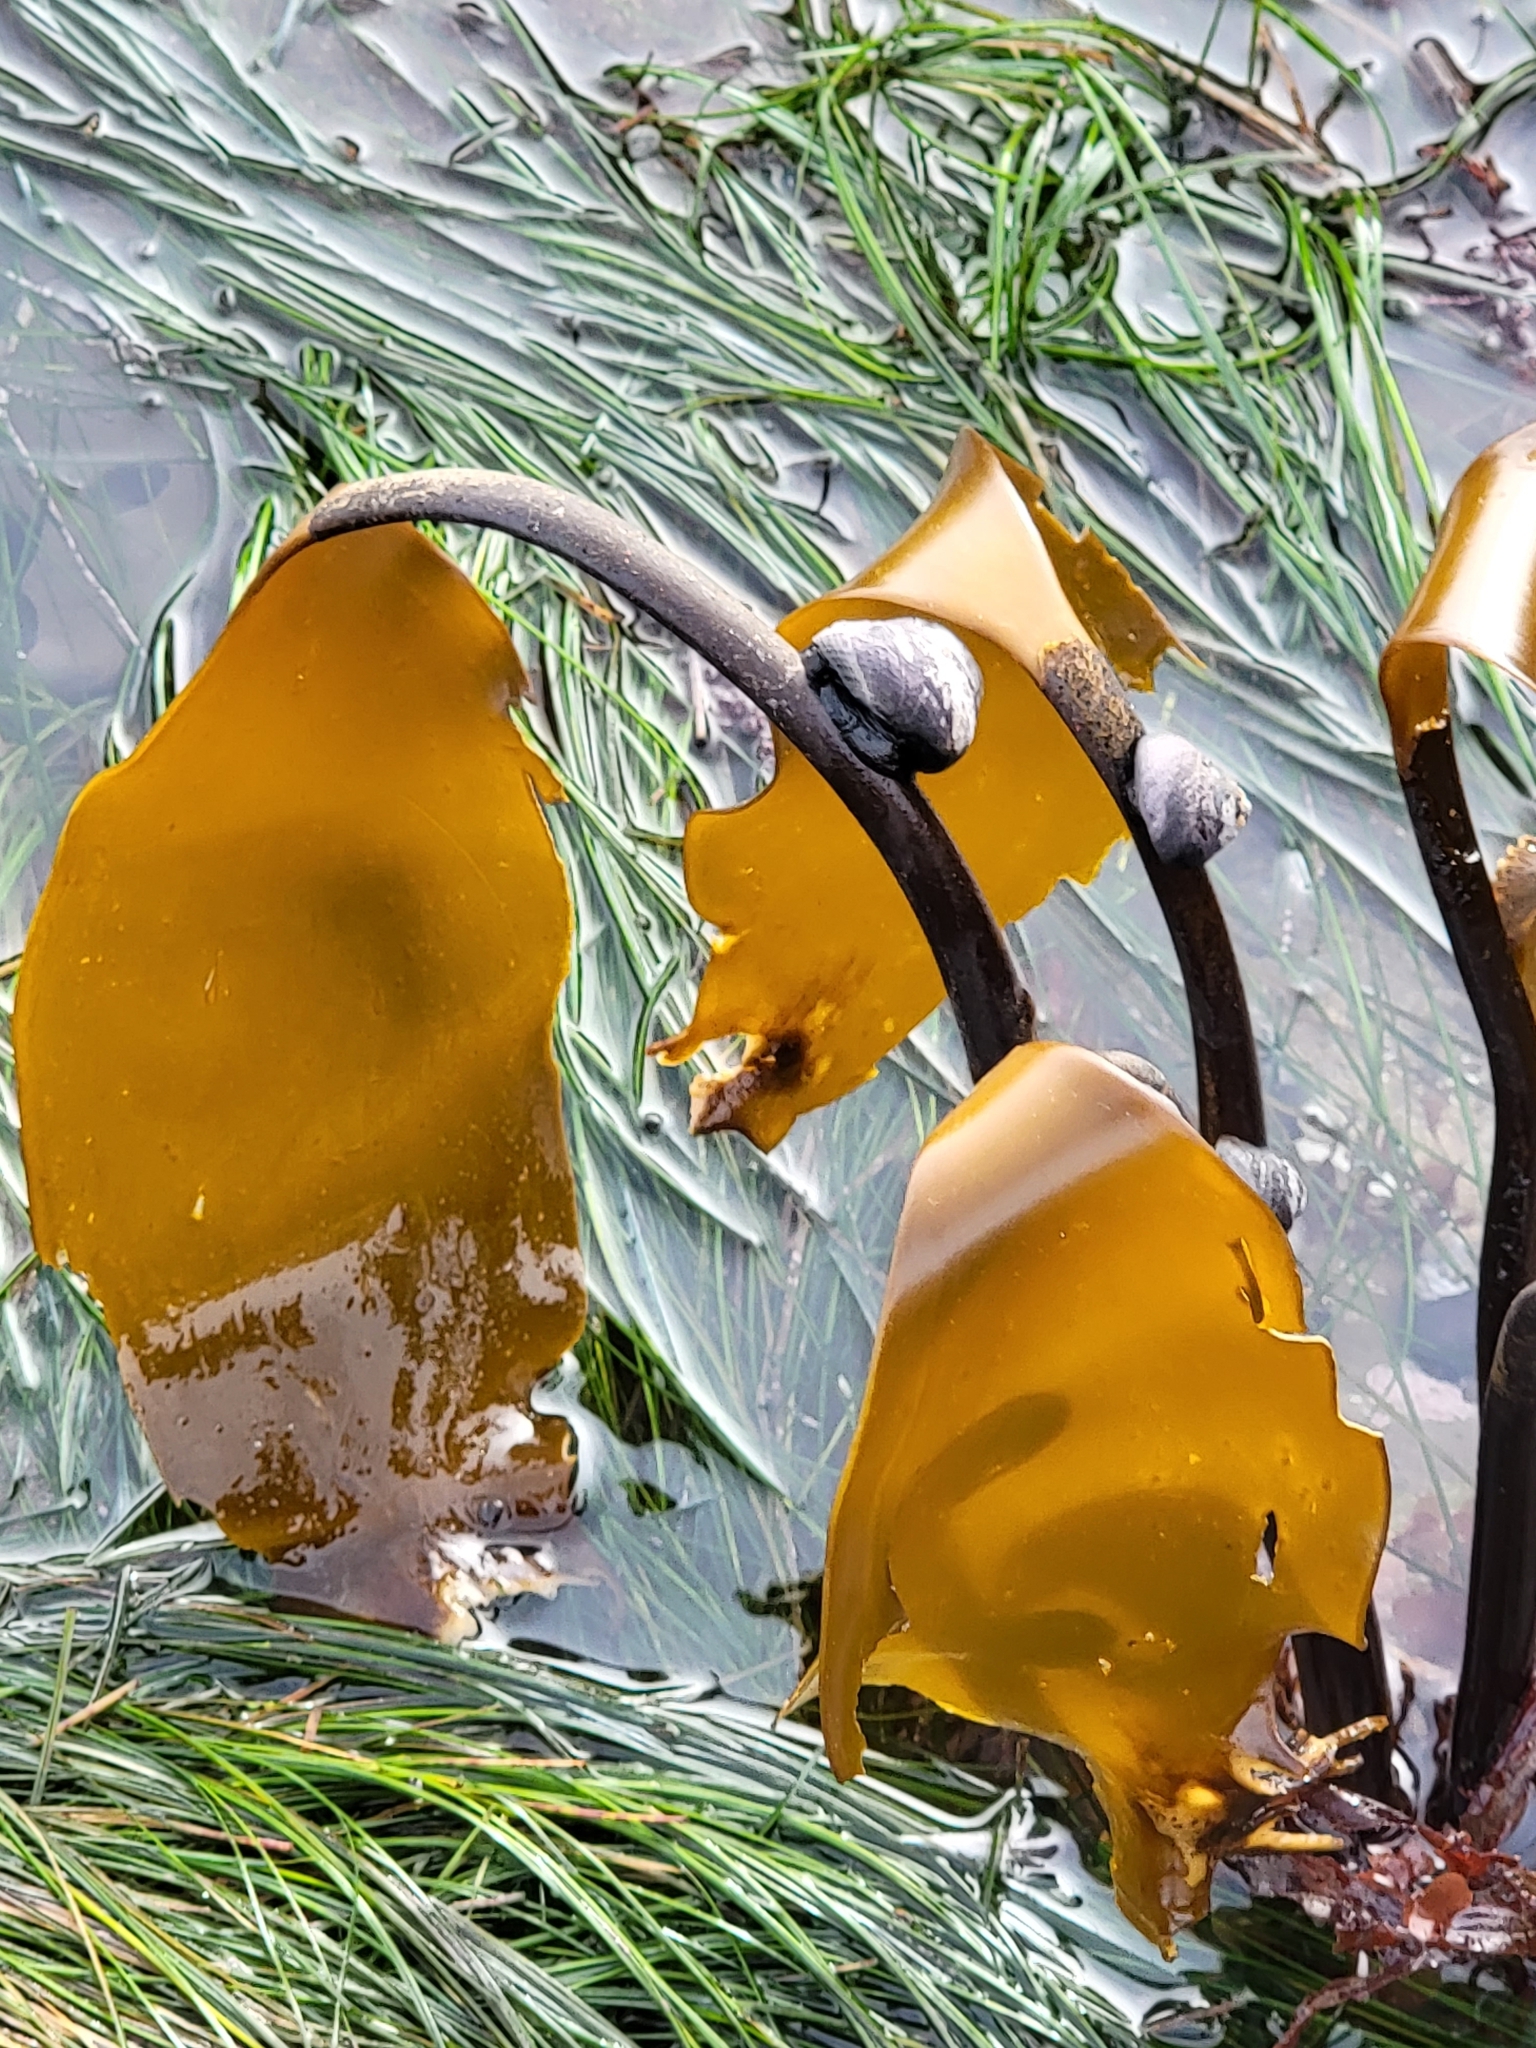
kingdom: Chromista
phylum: Ochrophyta
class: Phaeophyceae
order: Laminariales
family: Laminariaceae
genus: Laminaria
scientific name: Laminaria setchellii
